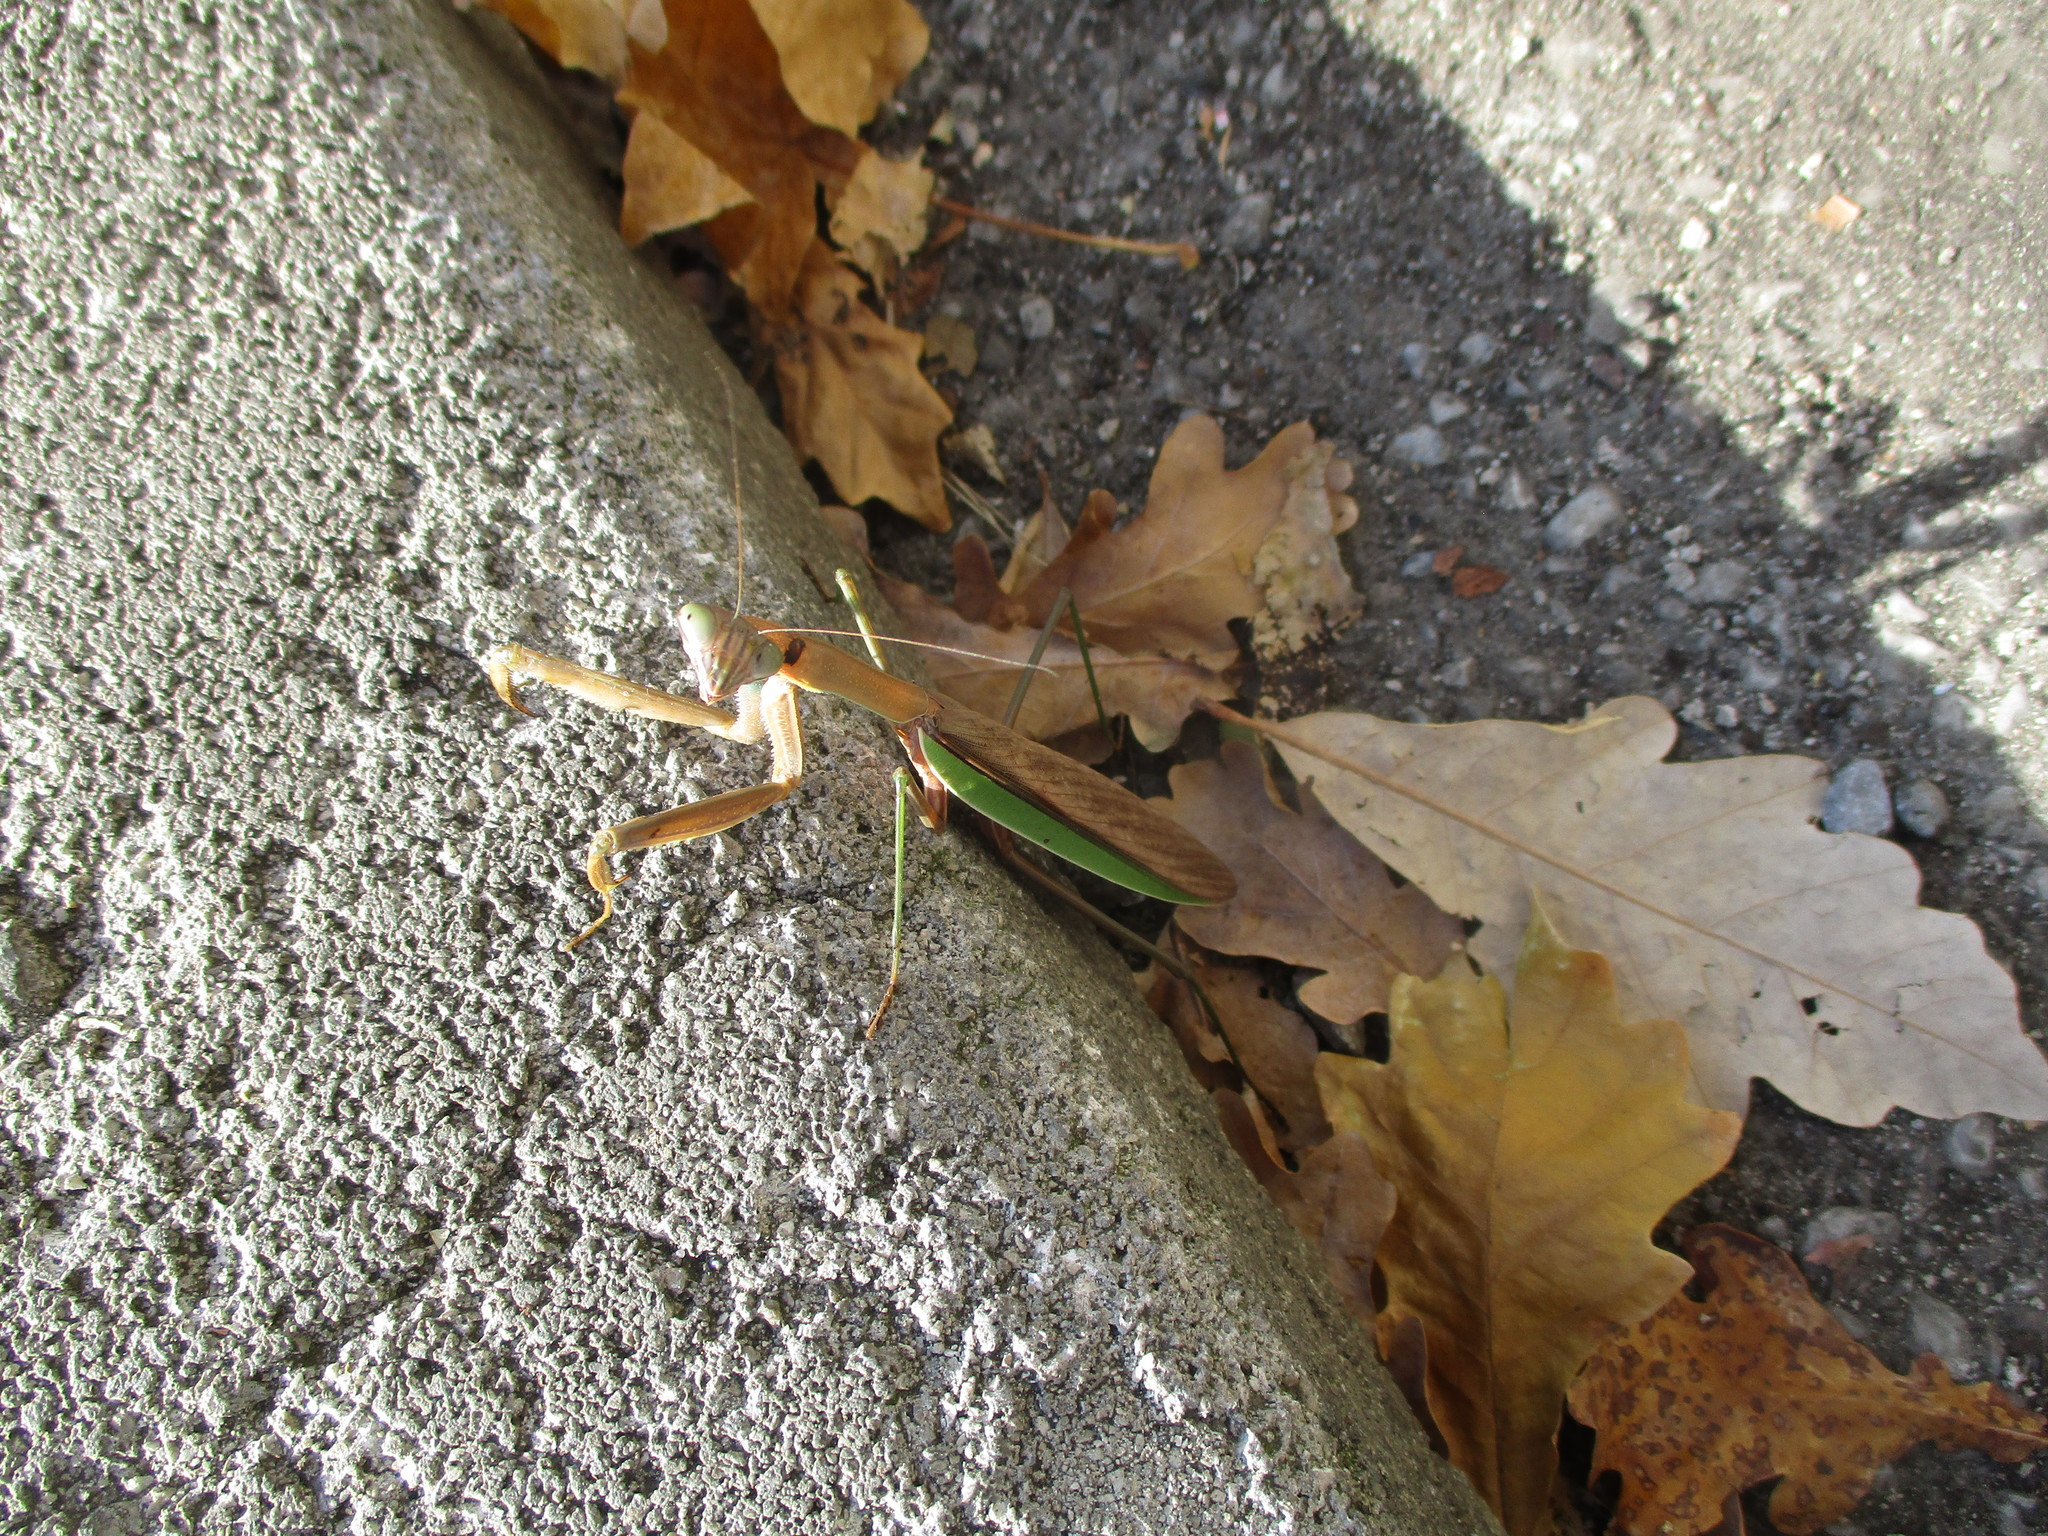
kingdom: Animalia
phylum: Arthropoda
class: Insecta
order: Mantodea
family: Mantidae
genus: Tenodera
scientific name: Tenodera sinensis
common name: Chinese mantis
